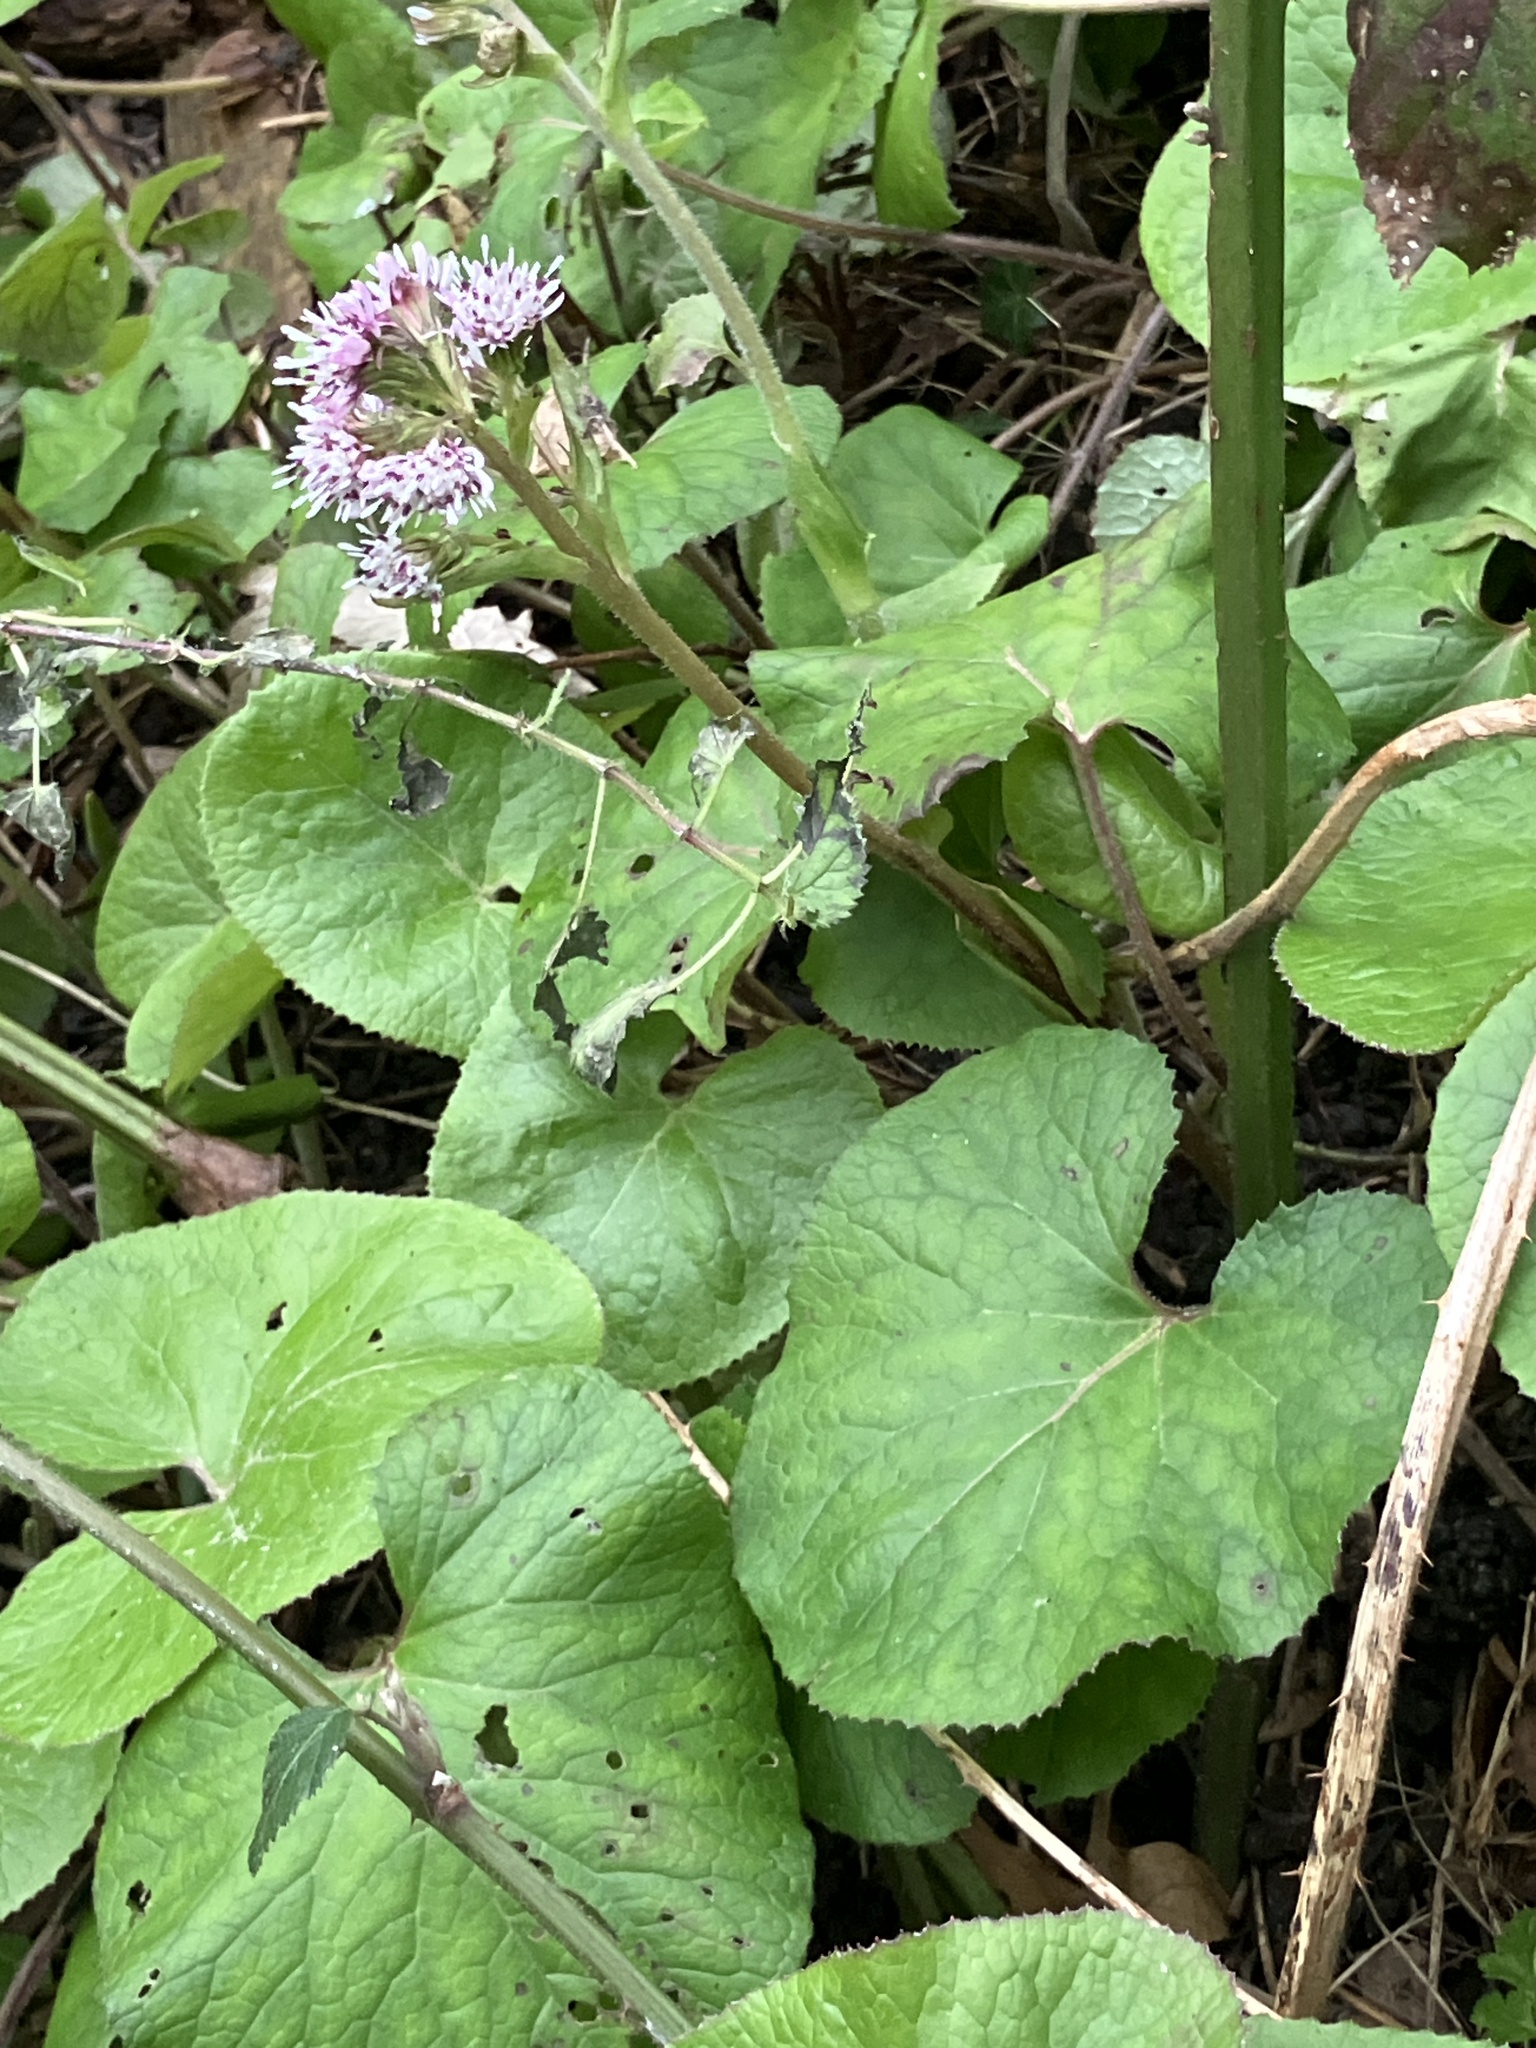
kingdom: Plantae
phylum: Tracheophyta
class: Magnoliopsida
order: Asterales
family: Asteraceae
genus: Petasites
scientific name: Petasites pyrenaicus
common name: Winter heliotrope
